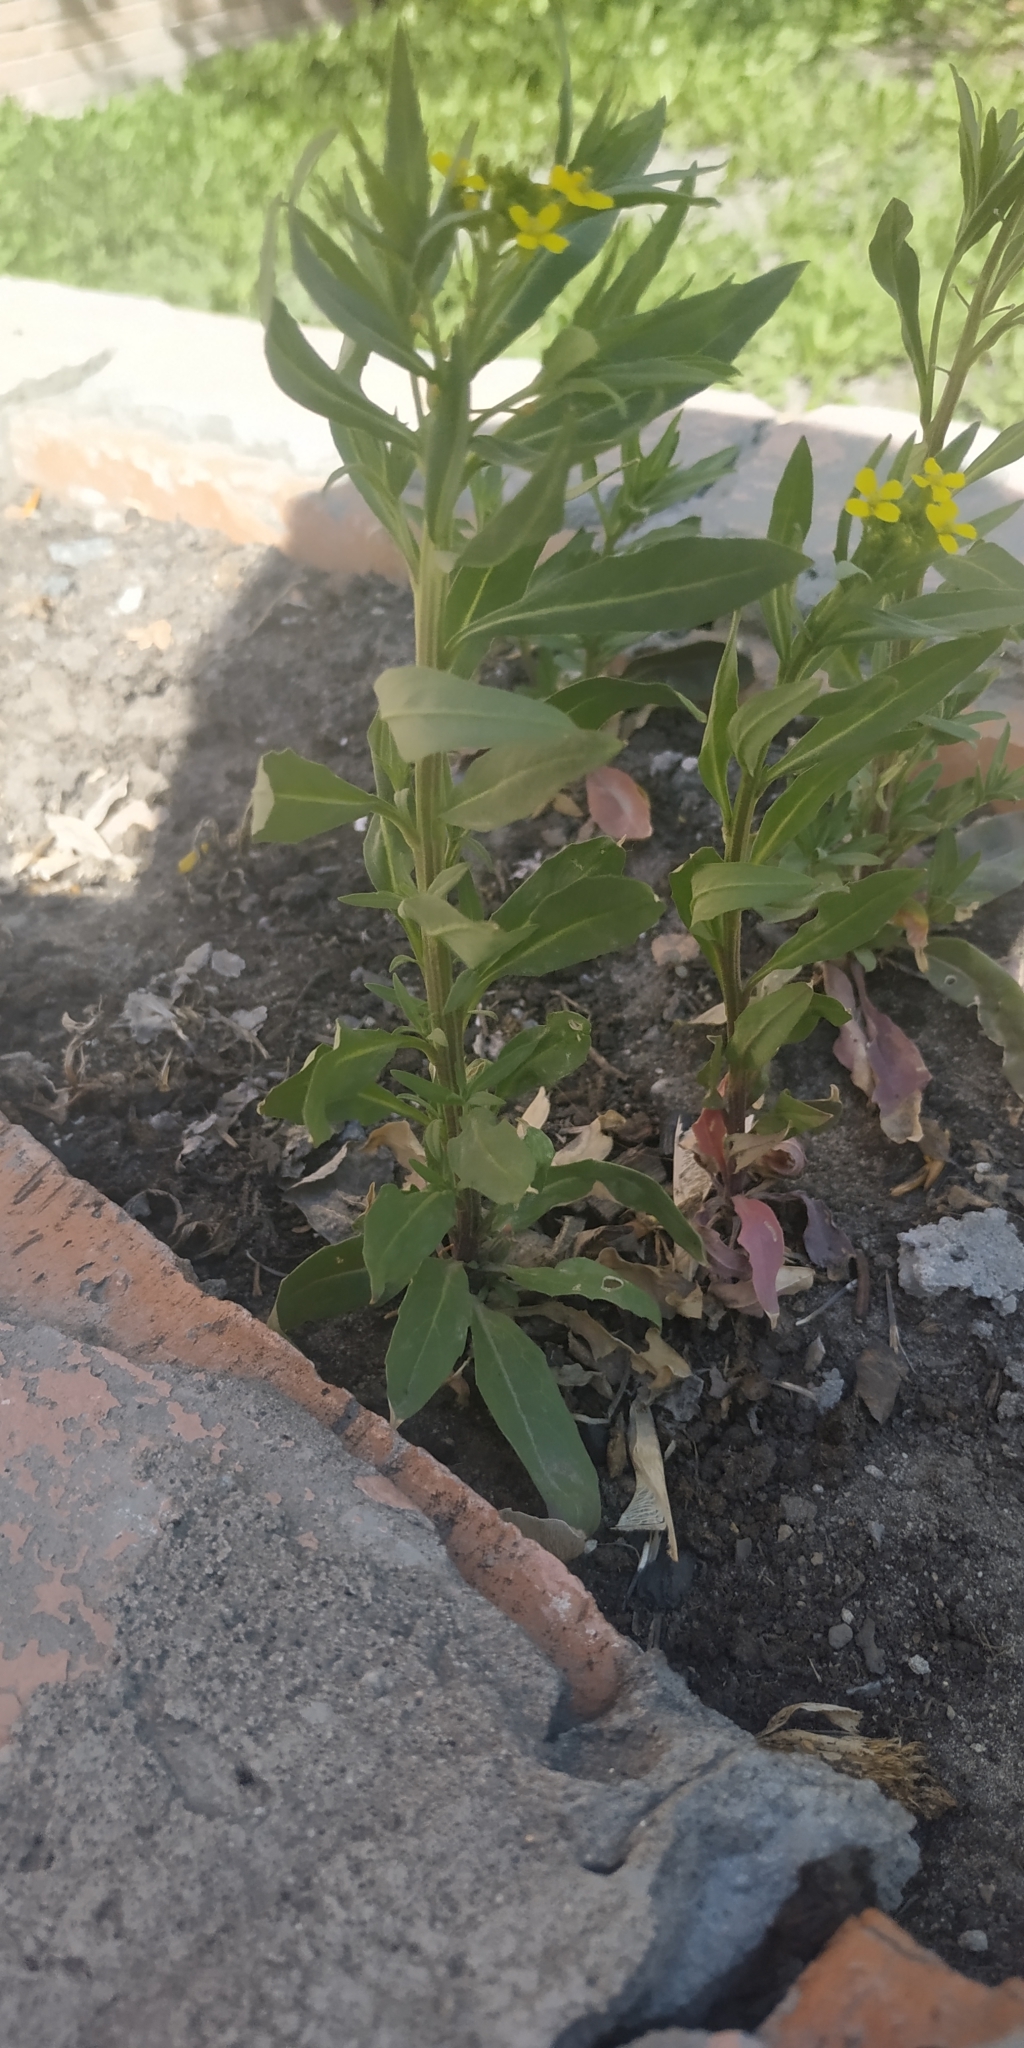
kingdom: Plantae
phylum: Tracheophyta
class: Magnoliopsida
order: Brassicales
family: Brassicaceae
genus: Erysimum
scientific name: Erysimum cheiranthoides
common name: Treacle mustard
